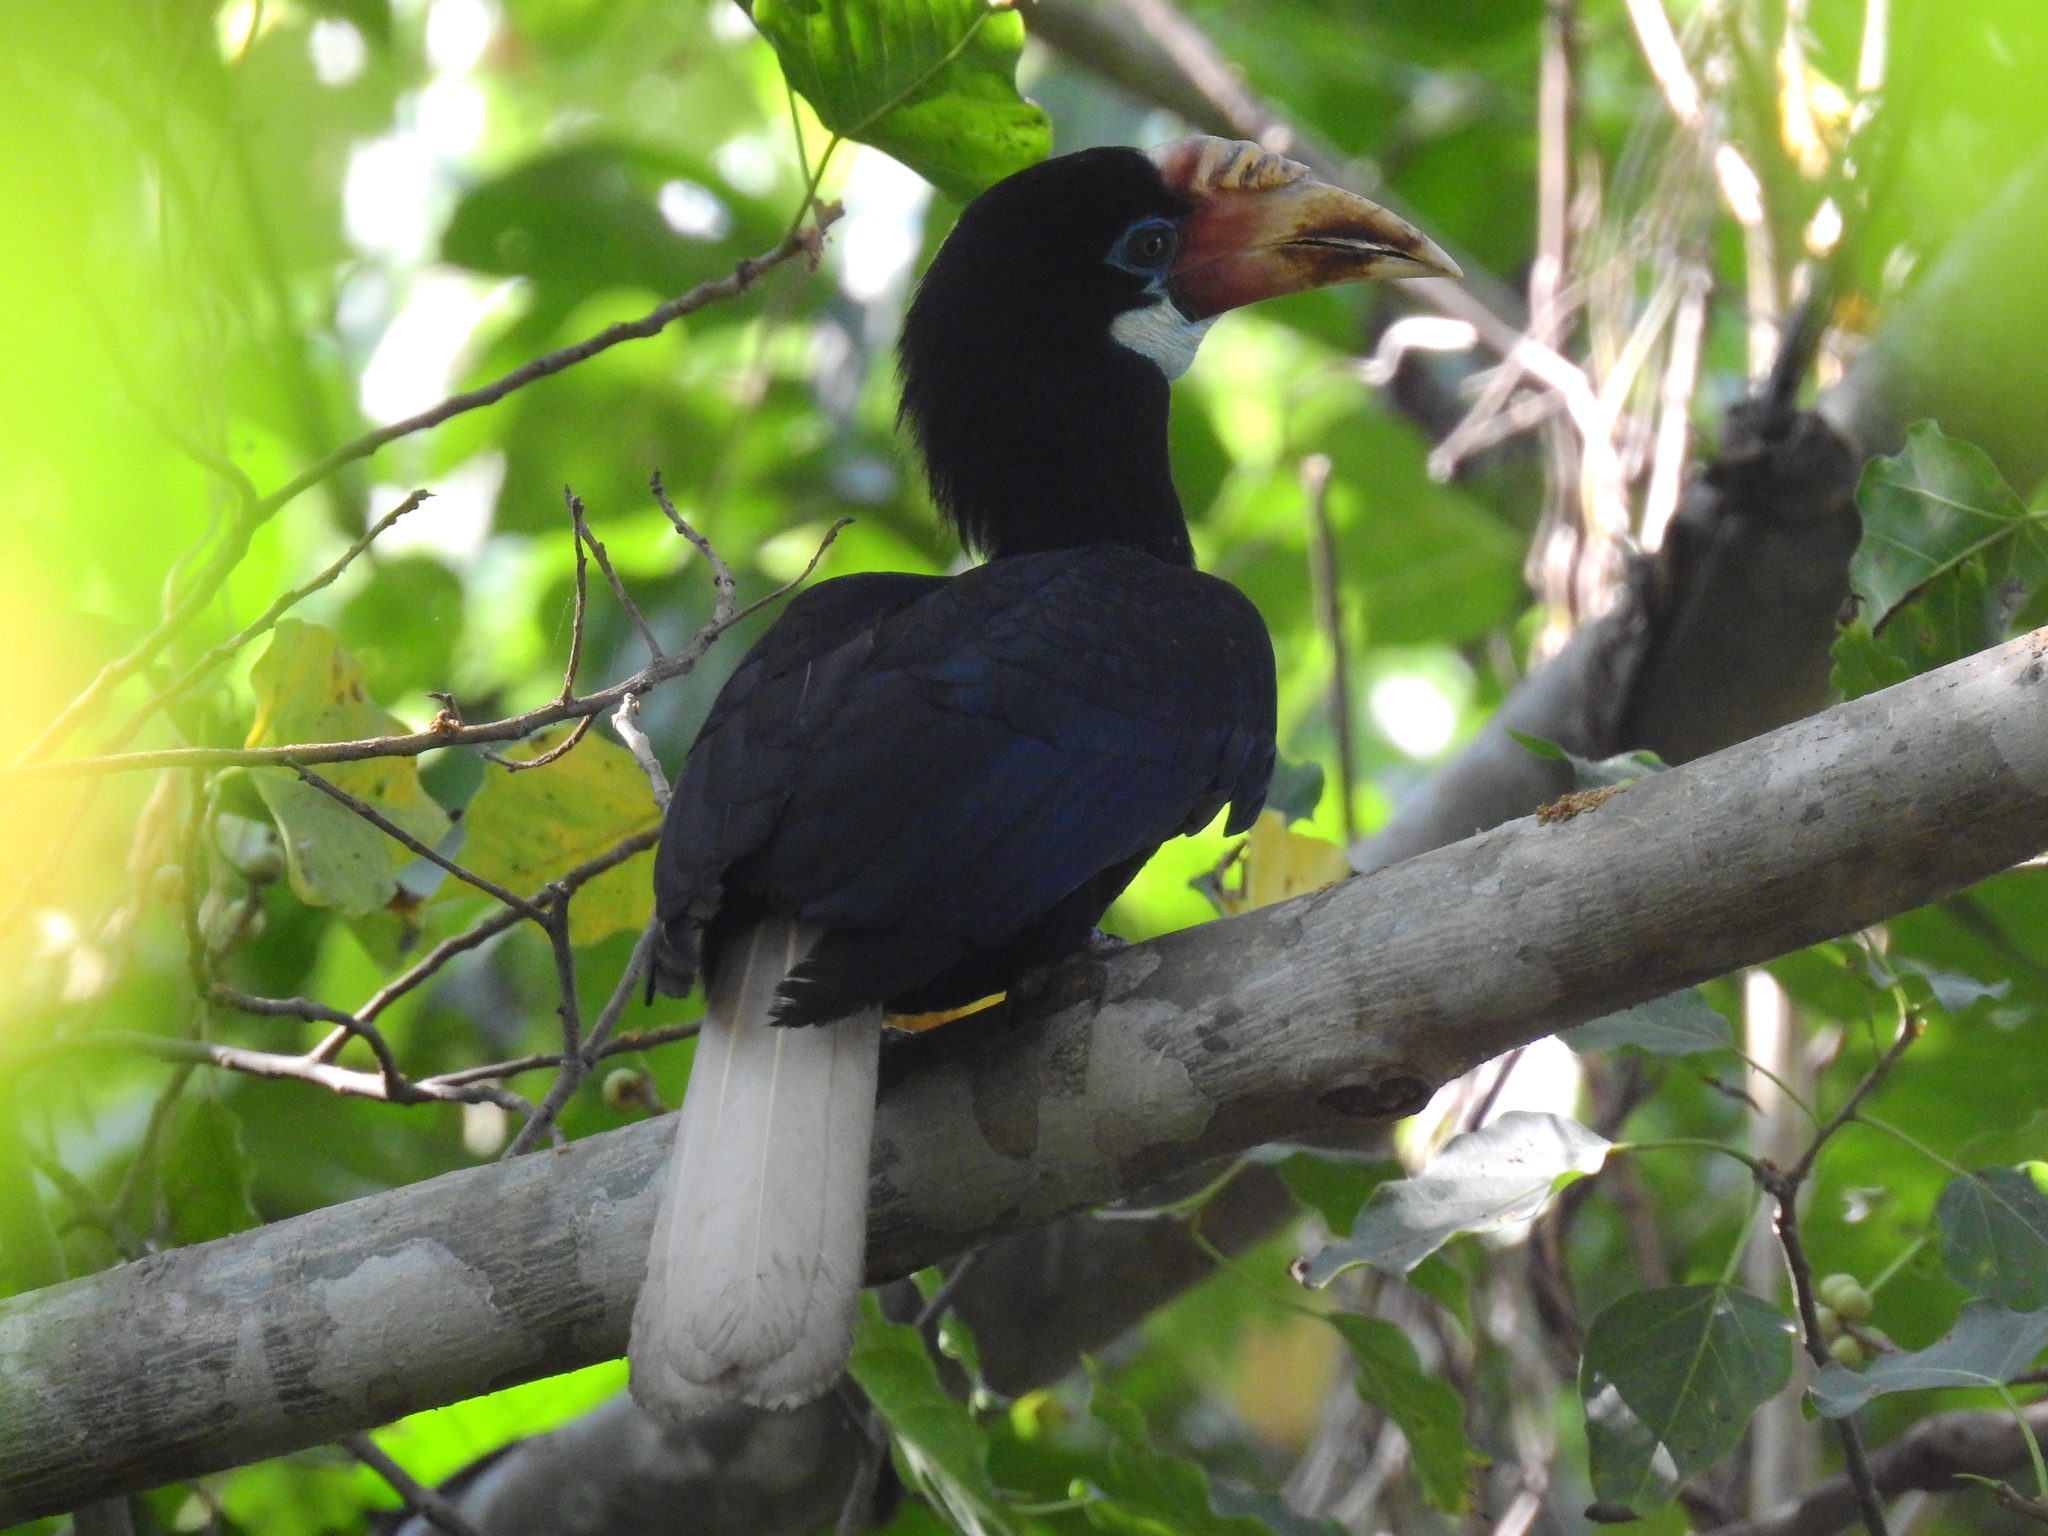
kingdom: Animalia
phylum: Chordata
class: Aves
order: Bucerotiformes
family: Bucerotidae
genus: Rhyticeros
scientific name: Rhyticeros narcondami
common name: Narcondam hornbill
